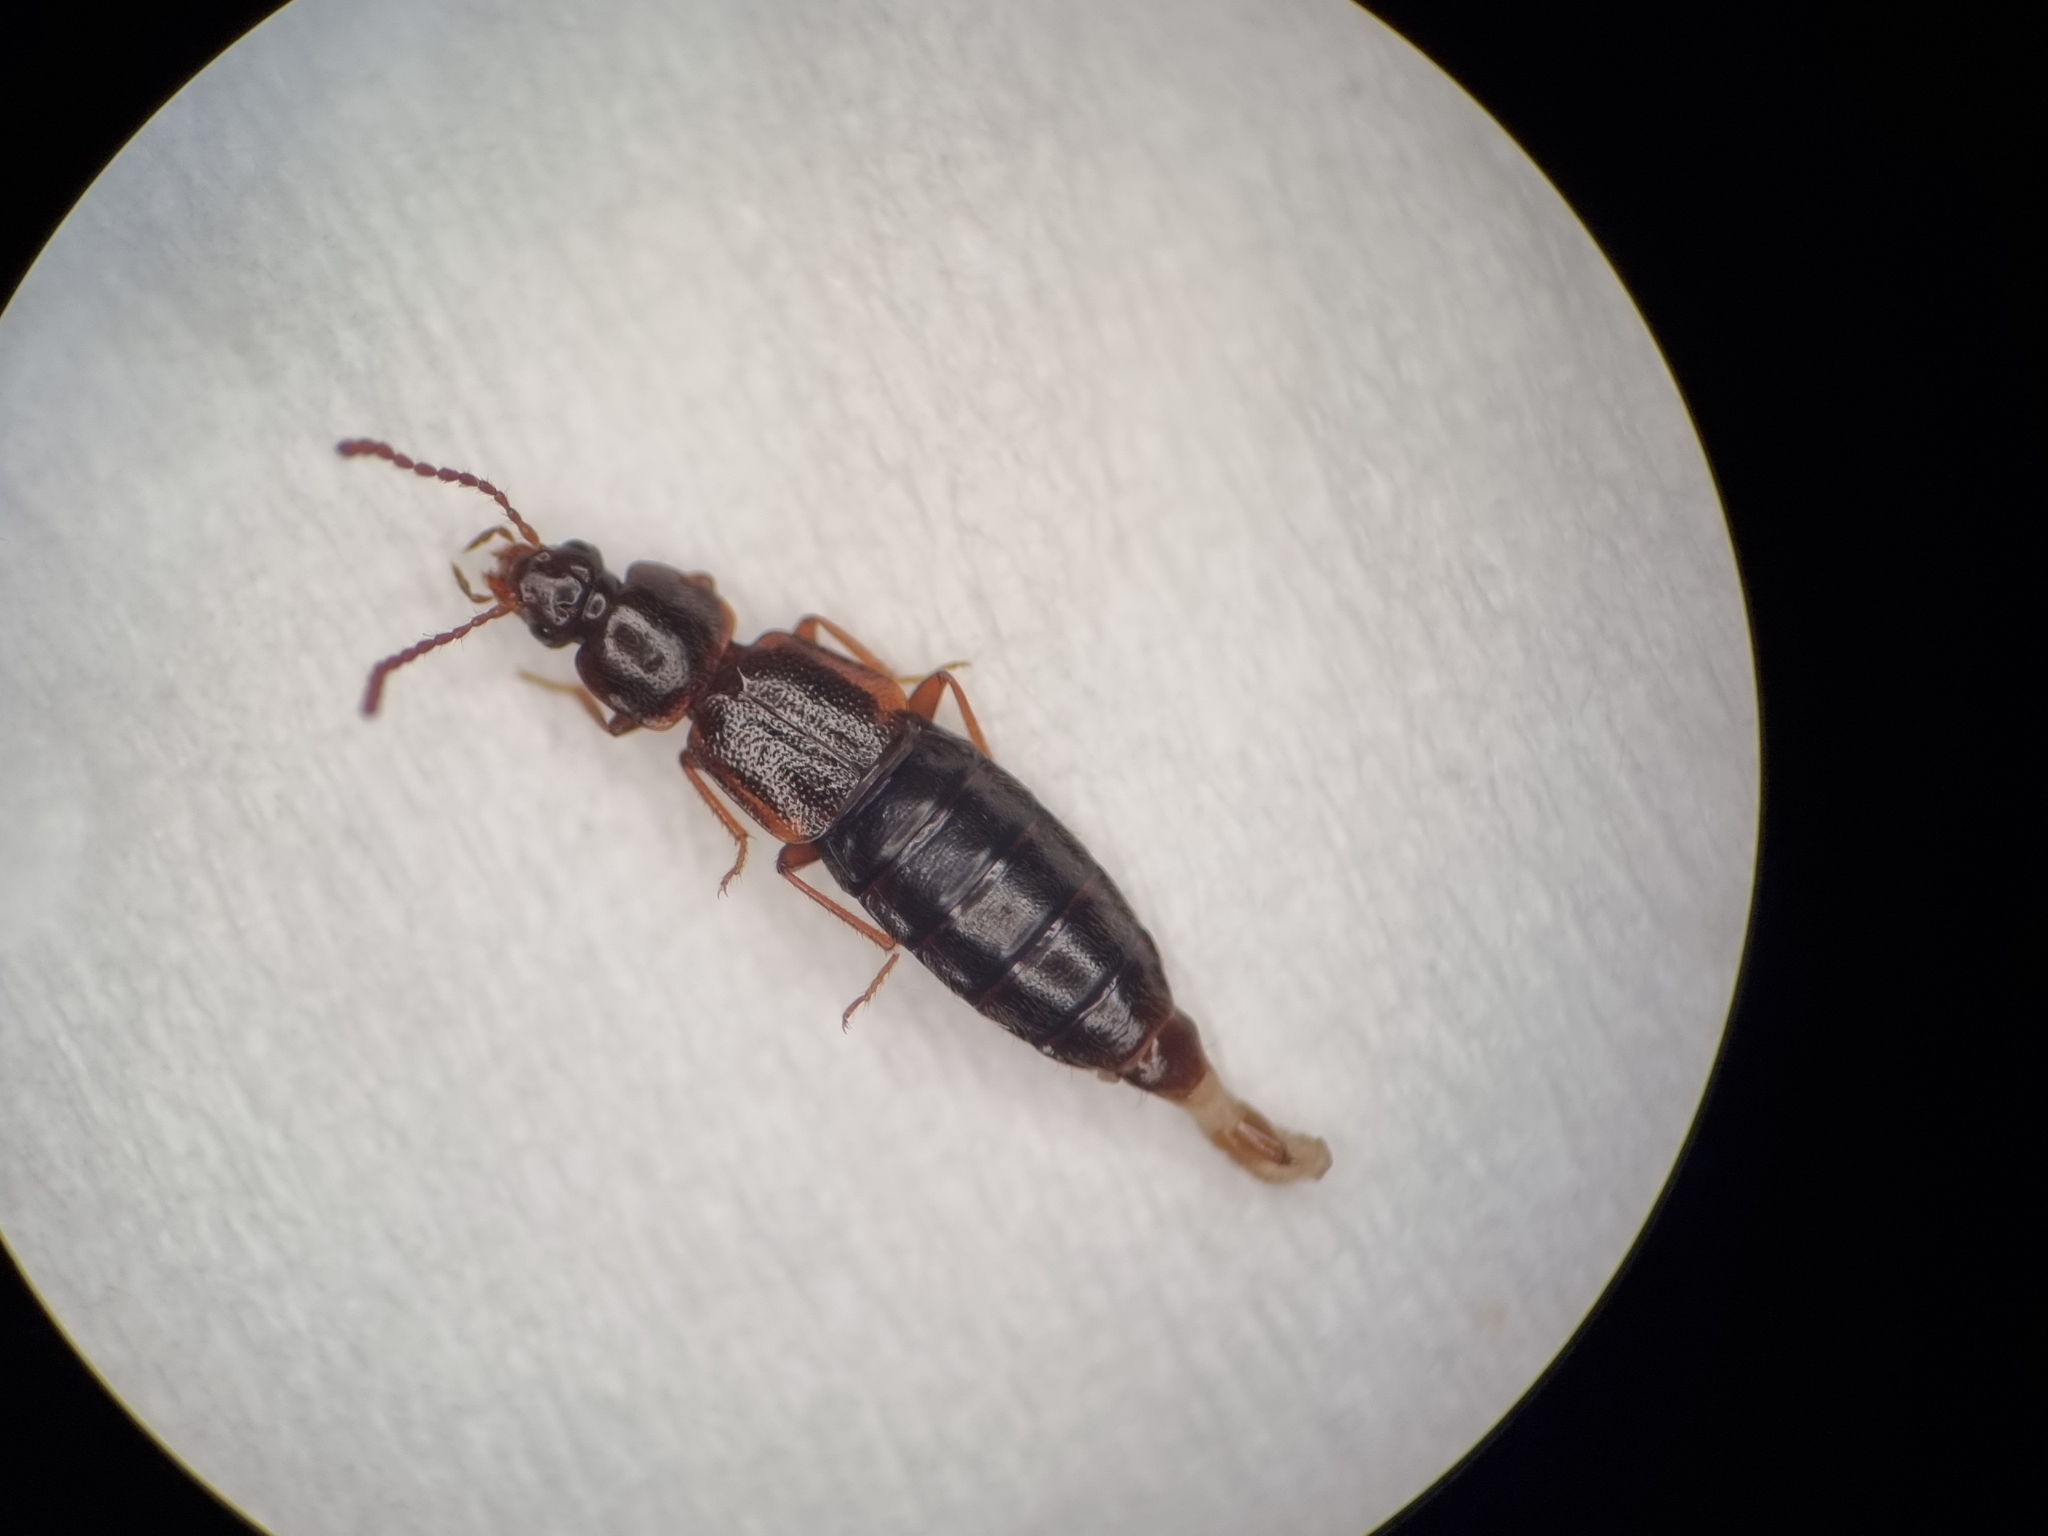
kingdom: Animalia
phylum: Arthropoda
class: Insecta
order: Coleoptera
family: Staphylinidae
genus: Arpedium
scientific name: Arpedium brachypterum
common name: Staph beetle
